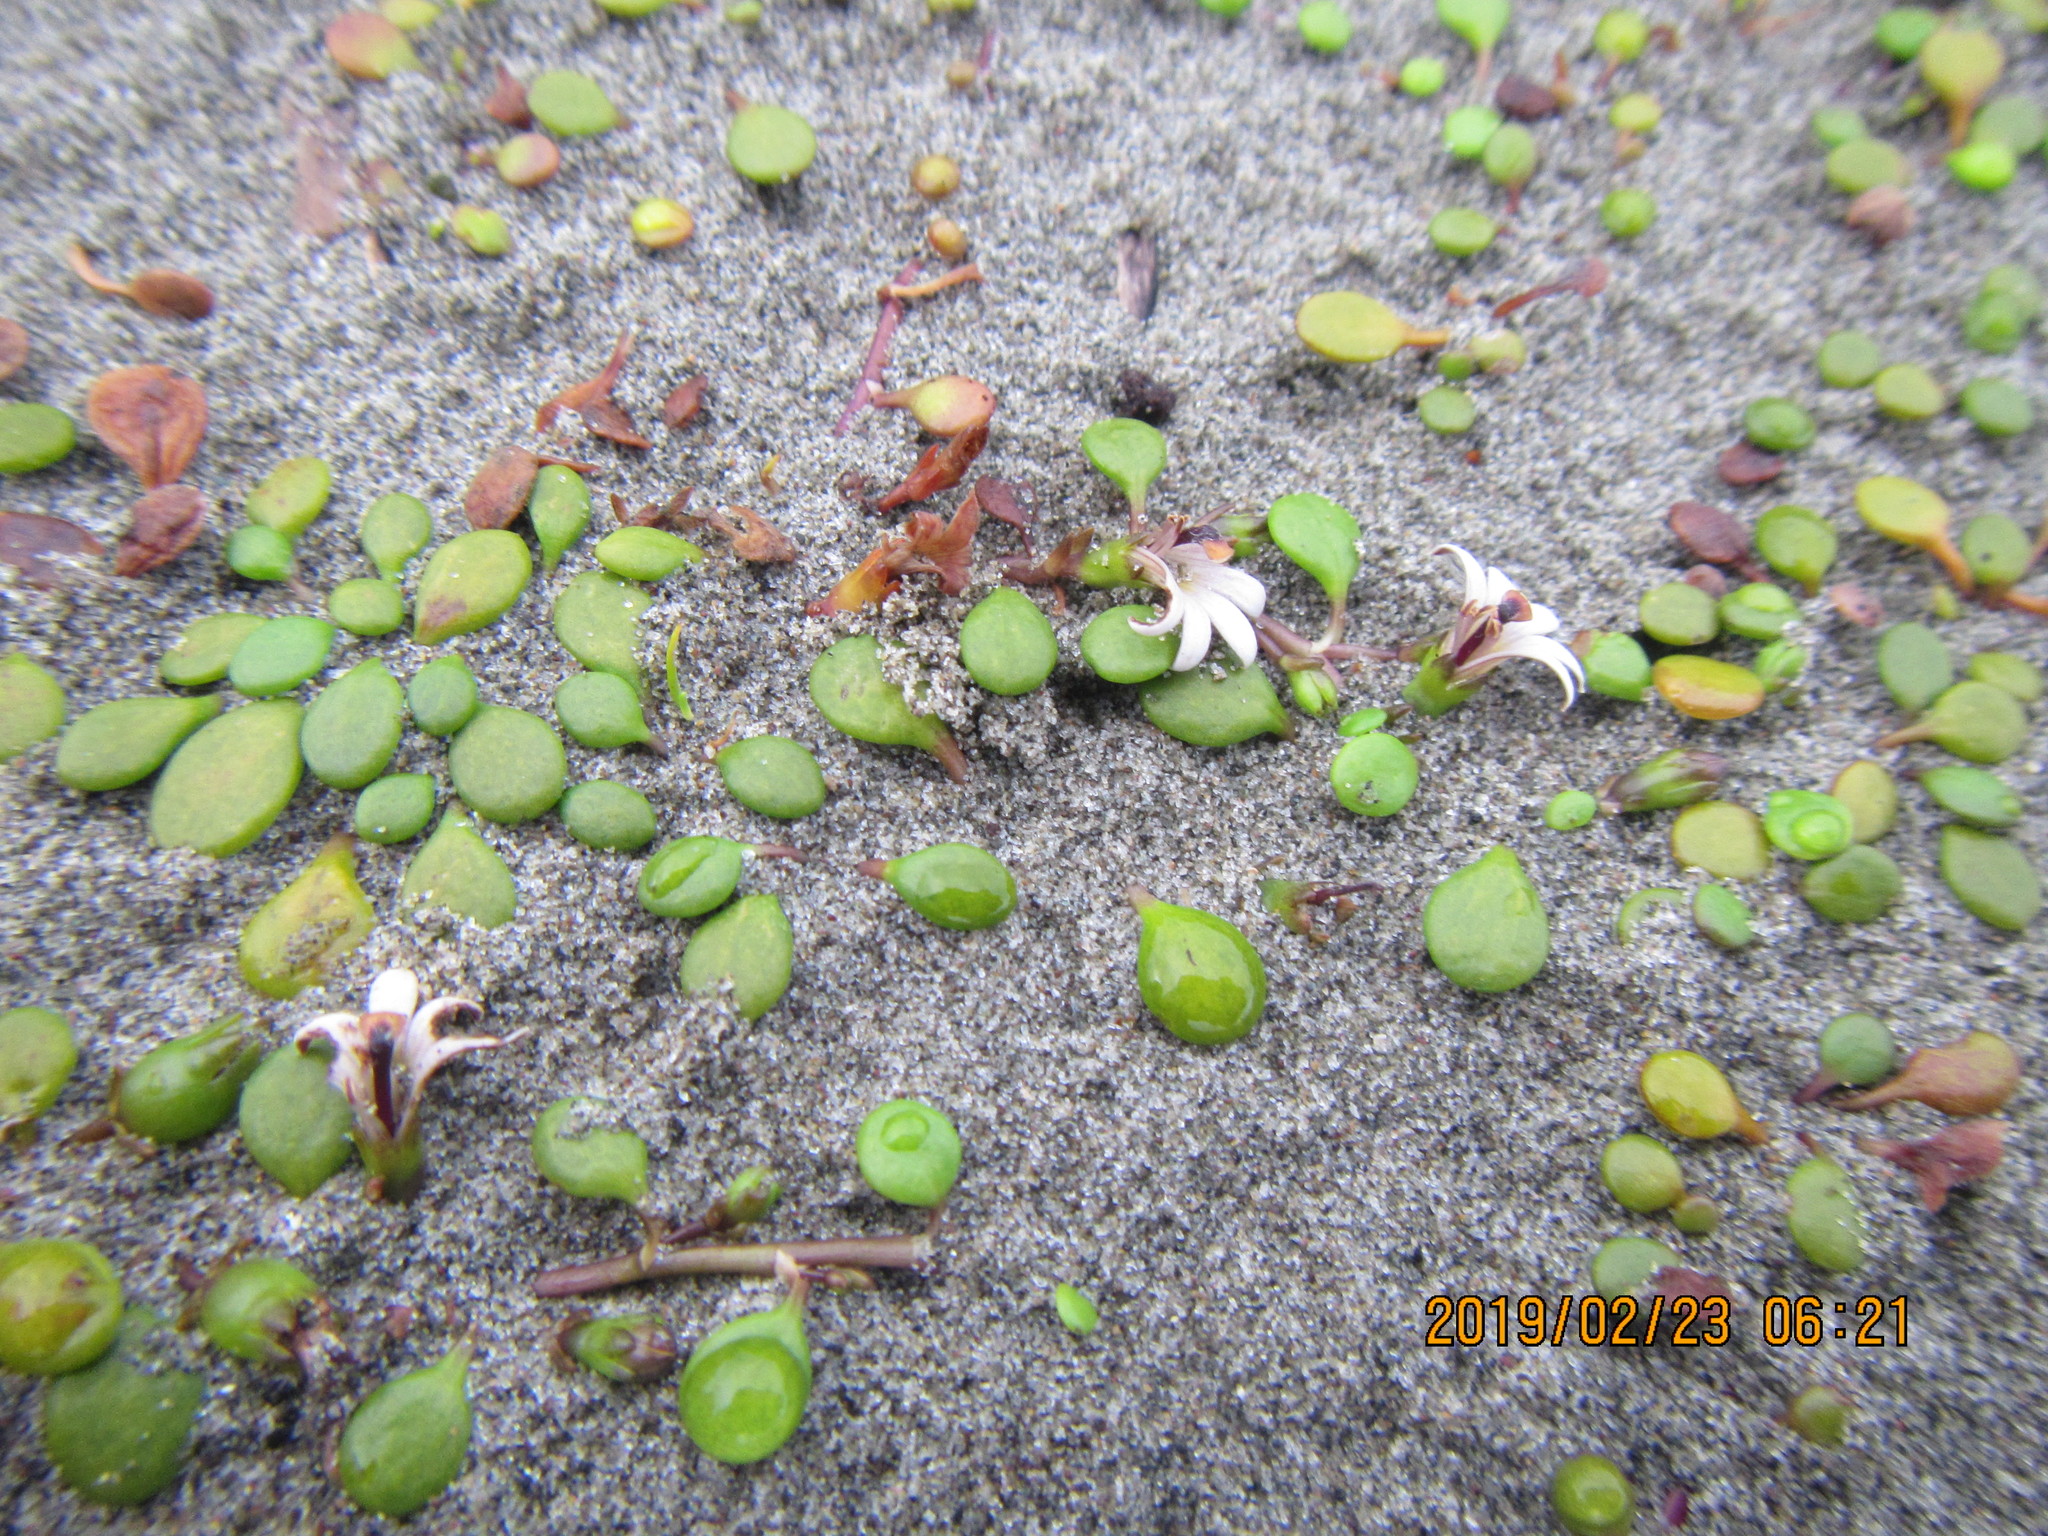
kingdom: Plantae
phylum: Tracheophyta
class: Magnoliopsida
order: Asterales
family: Goodeniaceae
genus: Goodenia
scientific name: Goodenia heenanii
